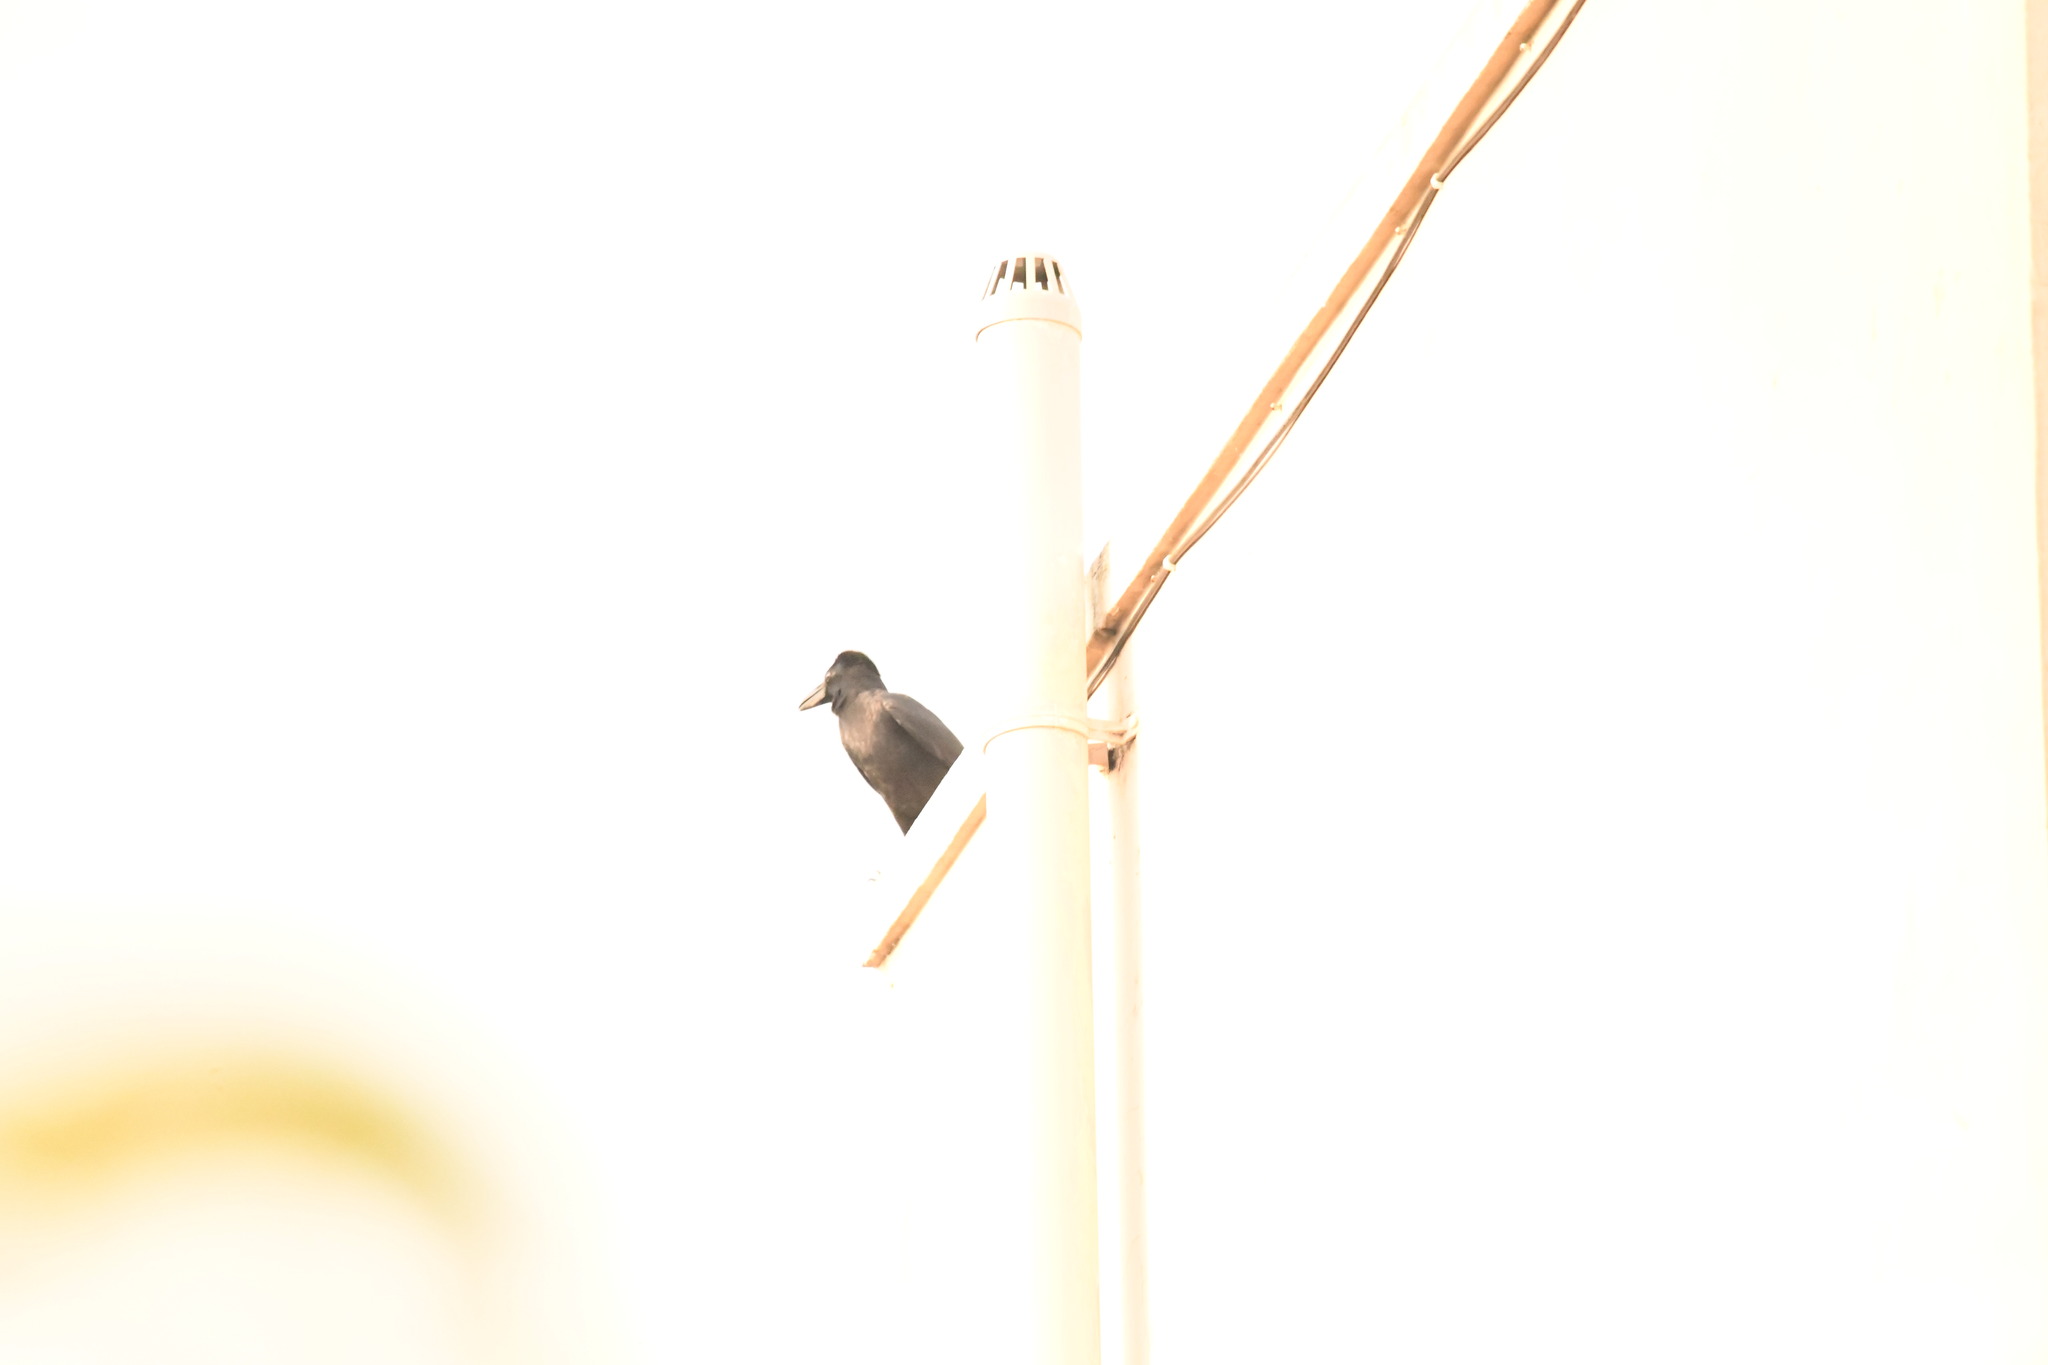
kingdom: Animalia
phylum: Chordata
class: Aves
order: Passeriformes
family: Corvidae
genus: Corvus
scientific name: Corvus macrorhynchos
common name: Large-billed crow
